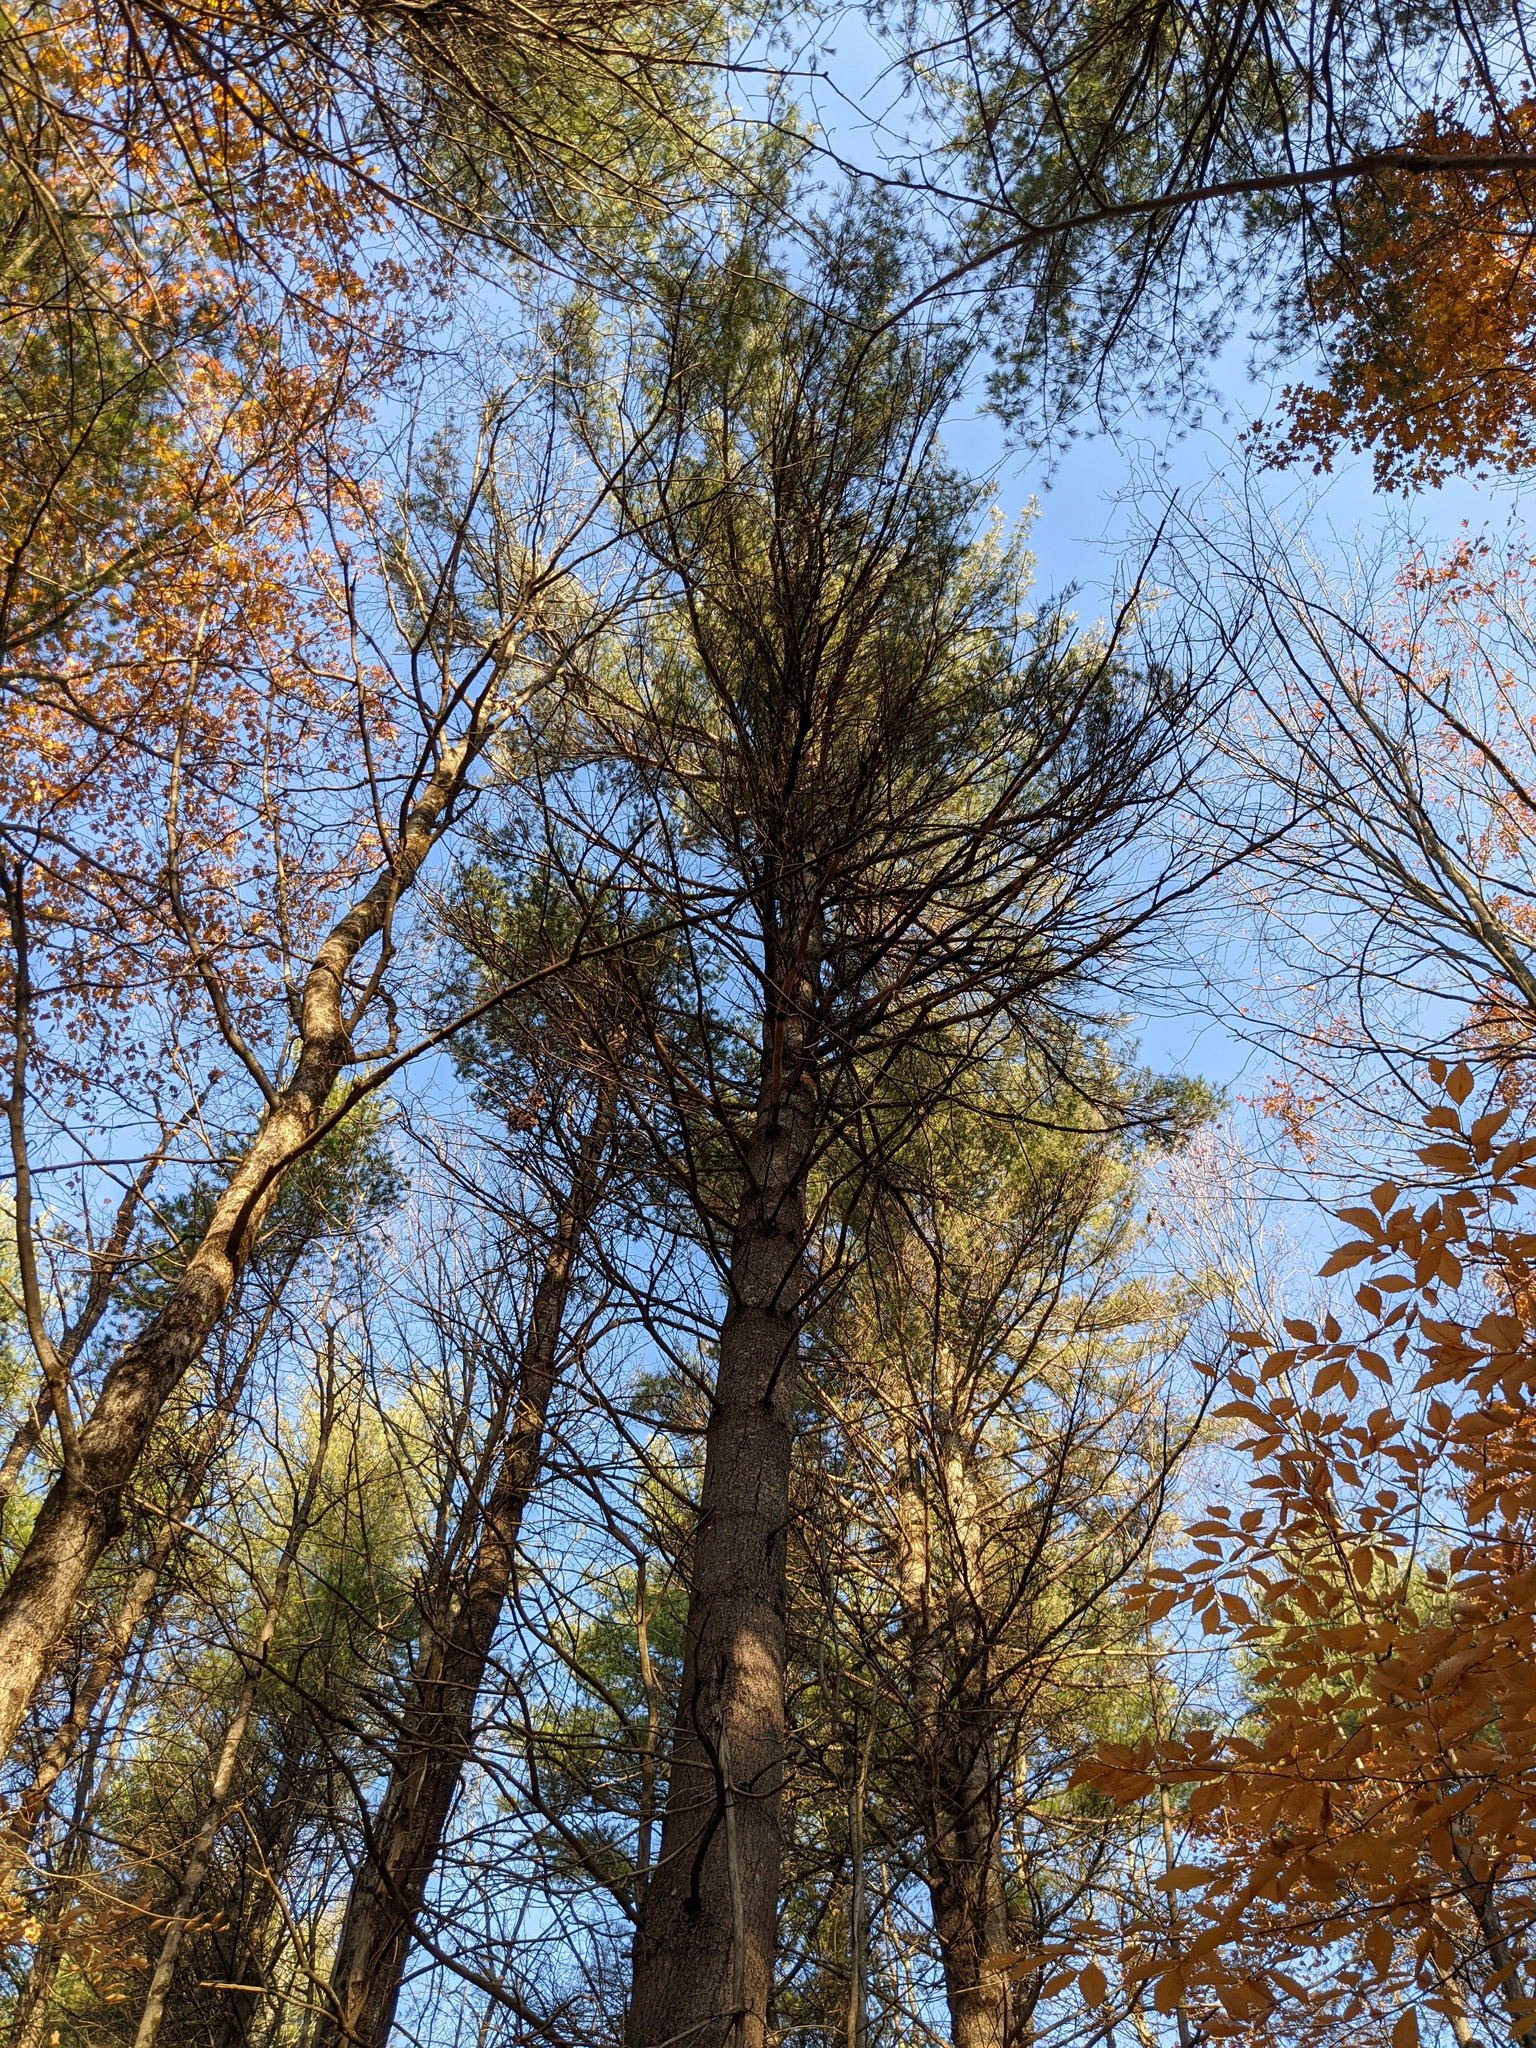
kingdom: Plantae
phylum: Tracheophyta
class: Pinopsida
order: Pinales
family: Pinaceae
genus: Pinus
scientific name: Pinus strobus
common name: Weymouth pine
